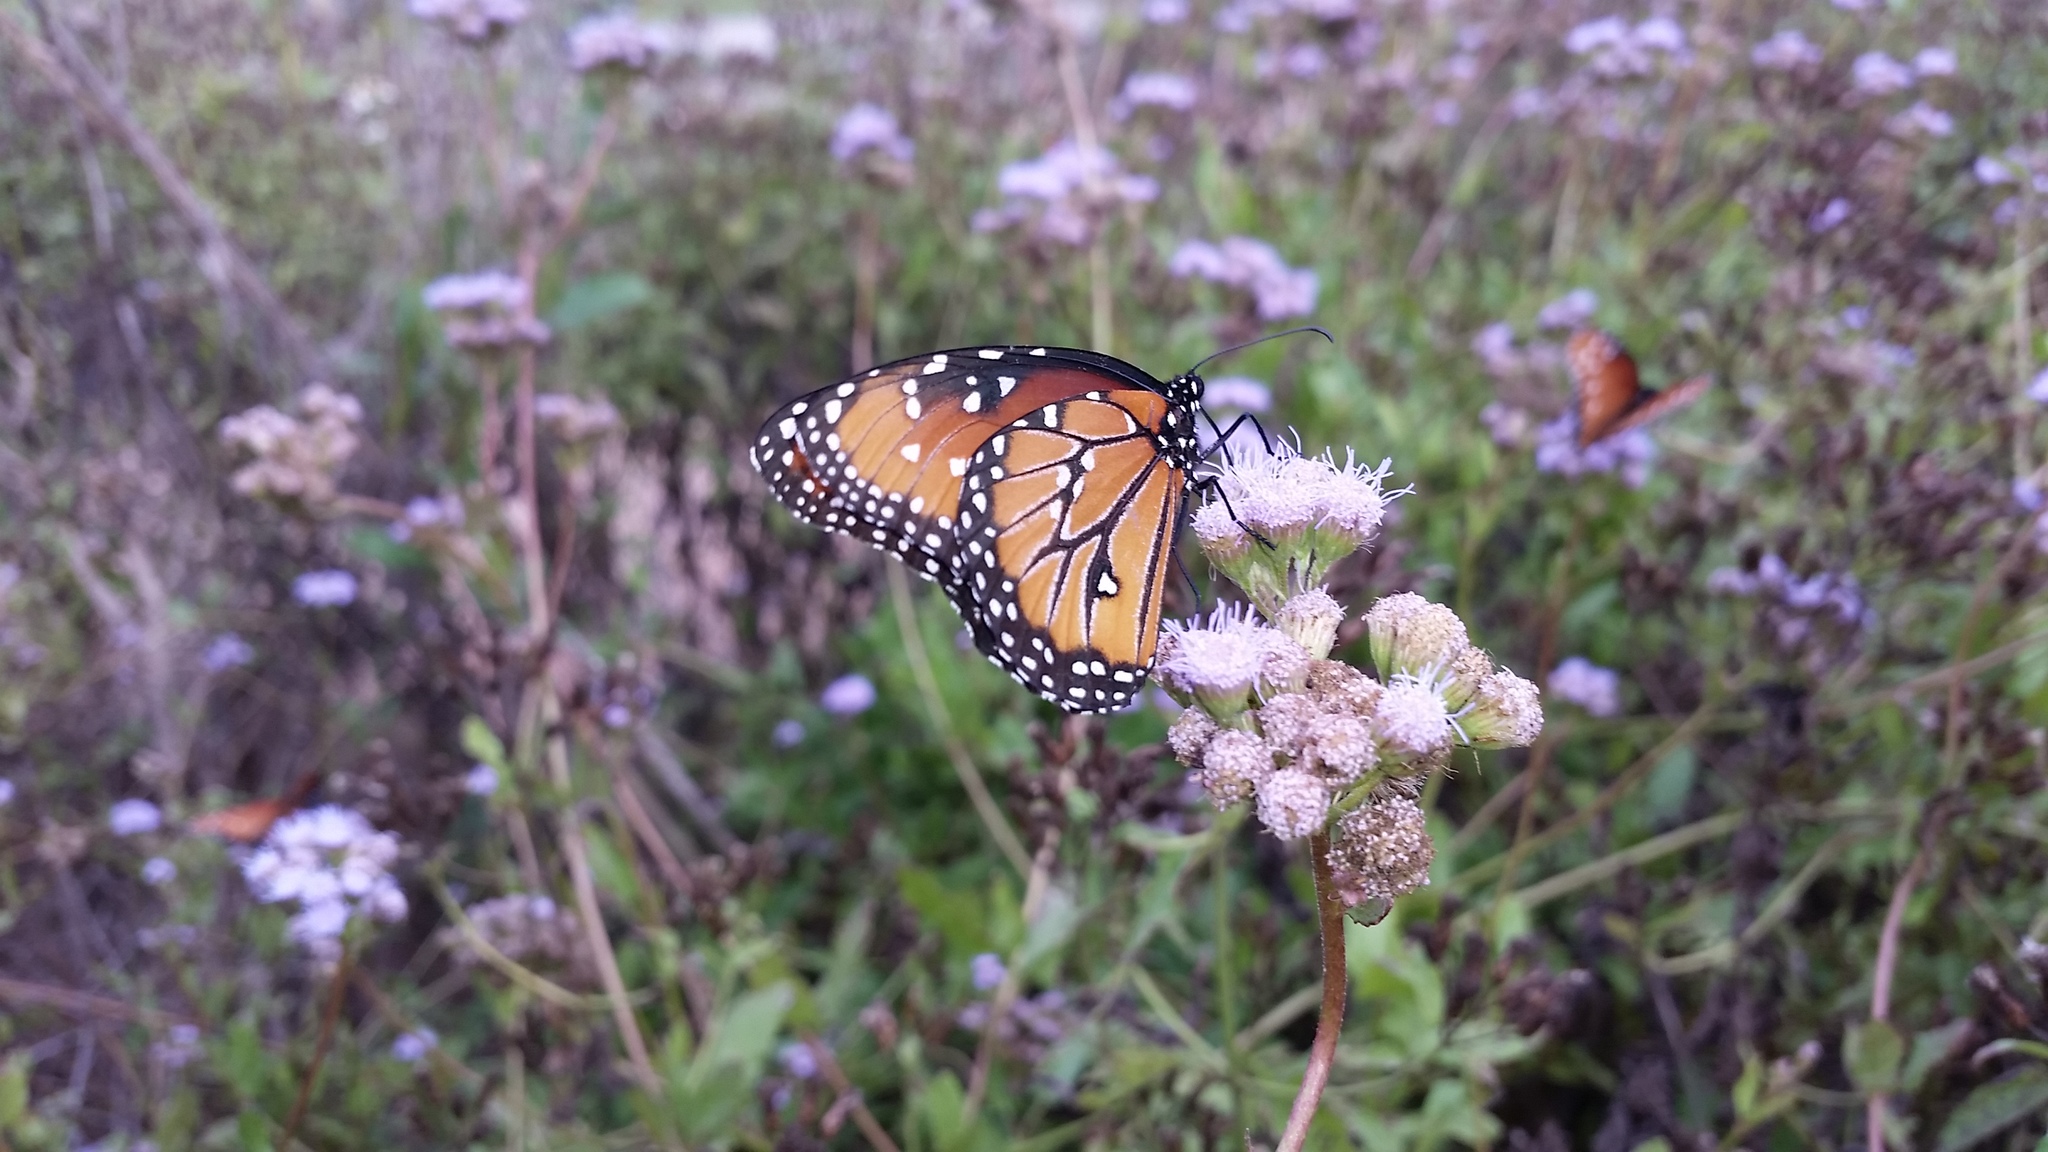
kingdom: Animalia
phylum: Arthropoda
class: Insecta
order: Lepidoptera
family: Nymphalidae
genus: Danaus
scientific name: Danaus gilippus
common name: Queen
